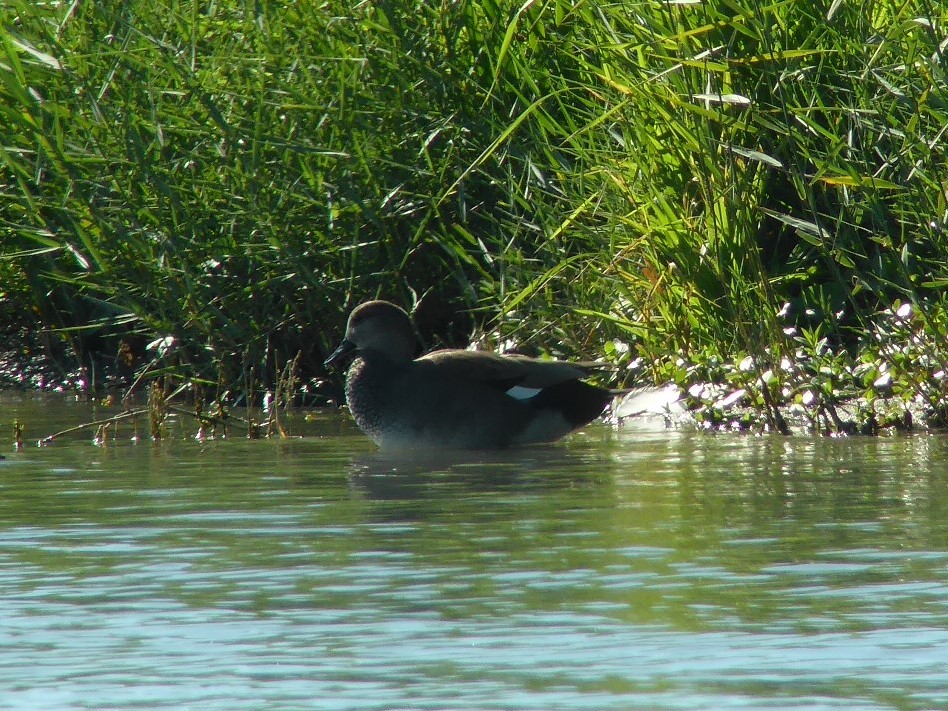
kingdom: Animalia
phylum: Chordata
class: Aves
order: Anseriformes
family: Anatidae
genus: Mareca
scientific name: Mareca strepera
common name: Gadwall
